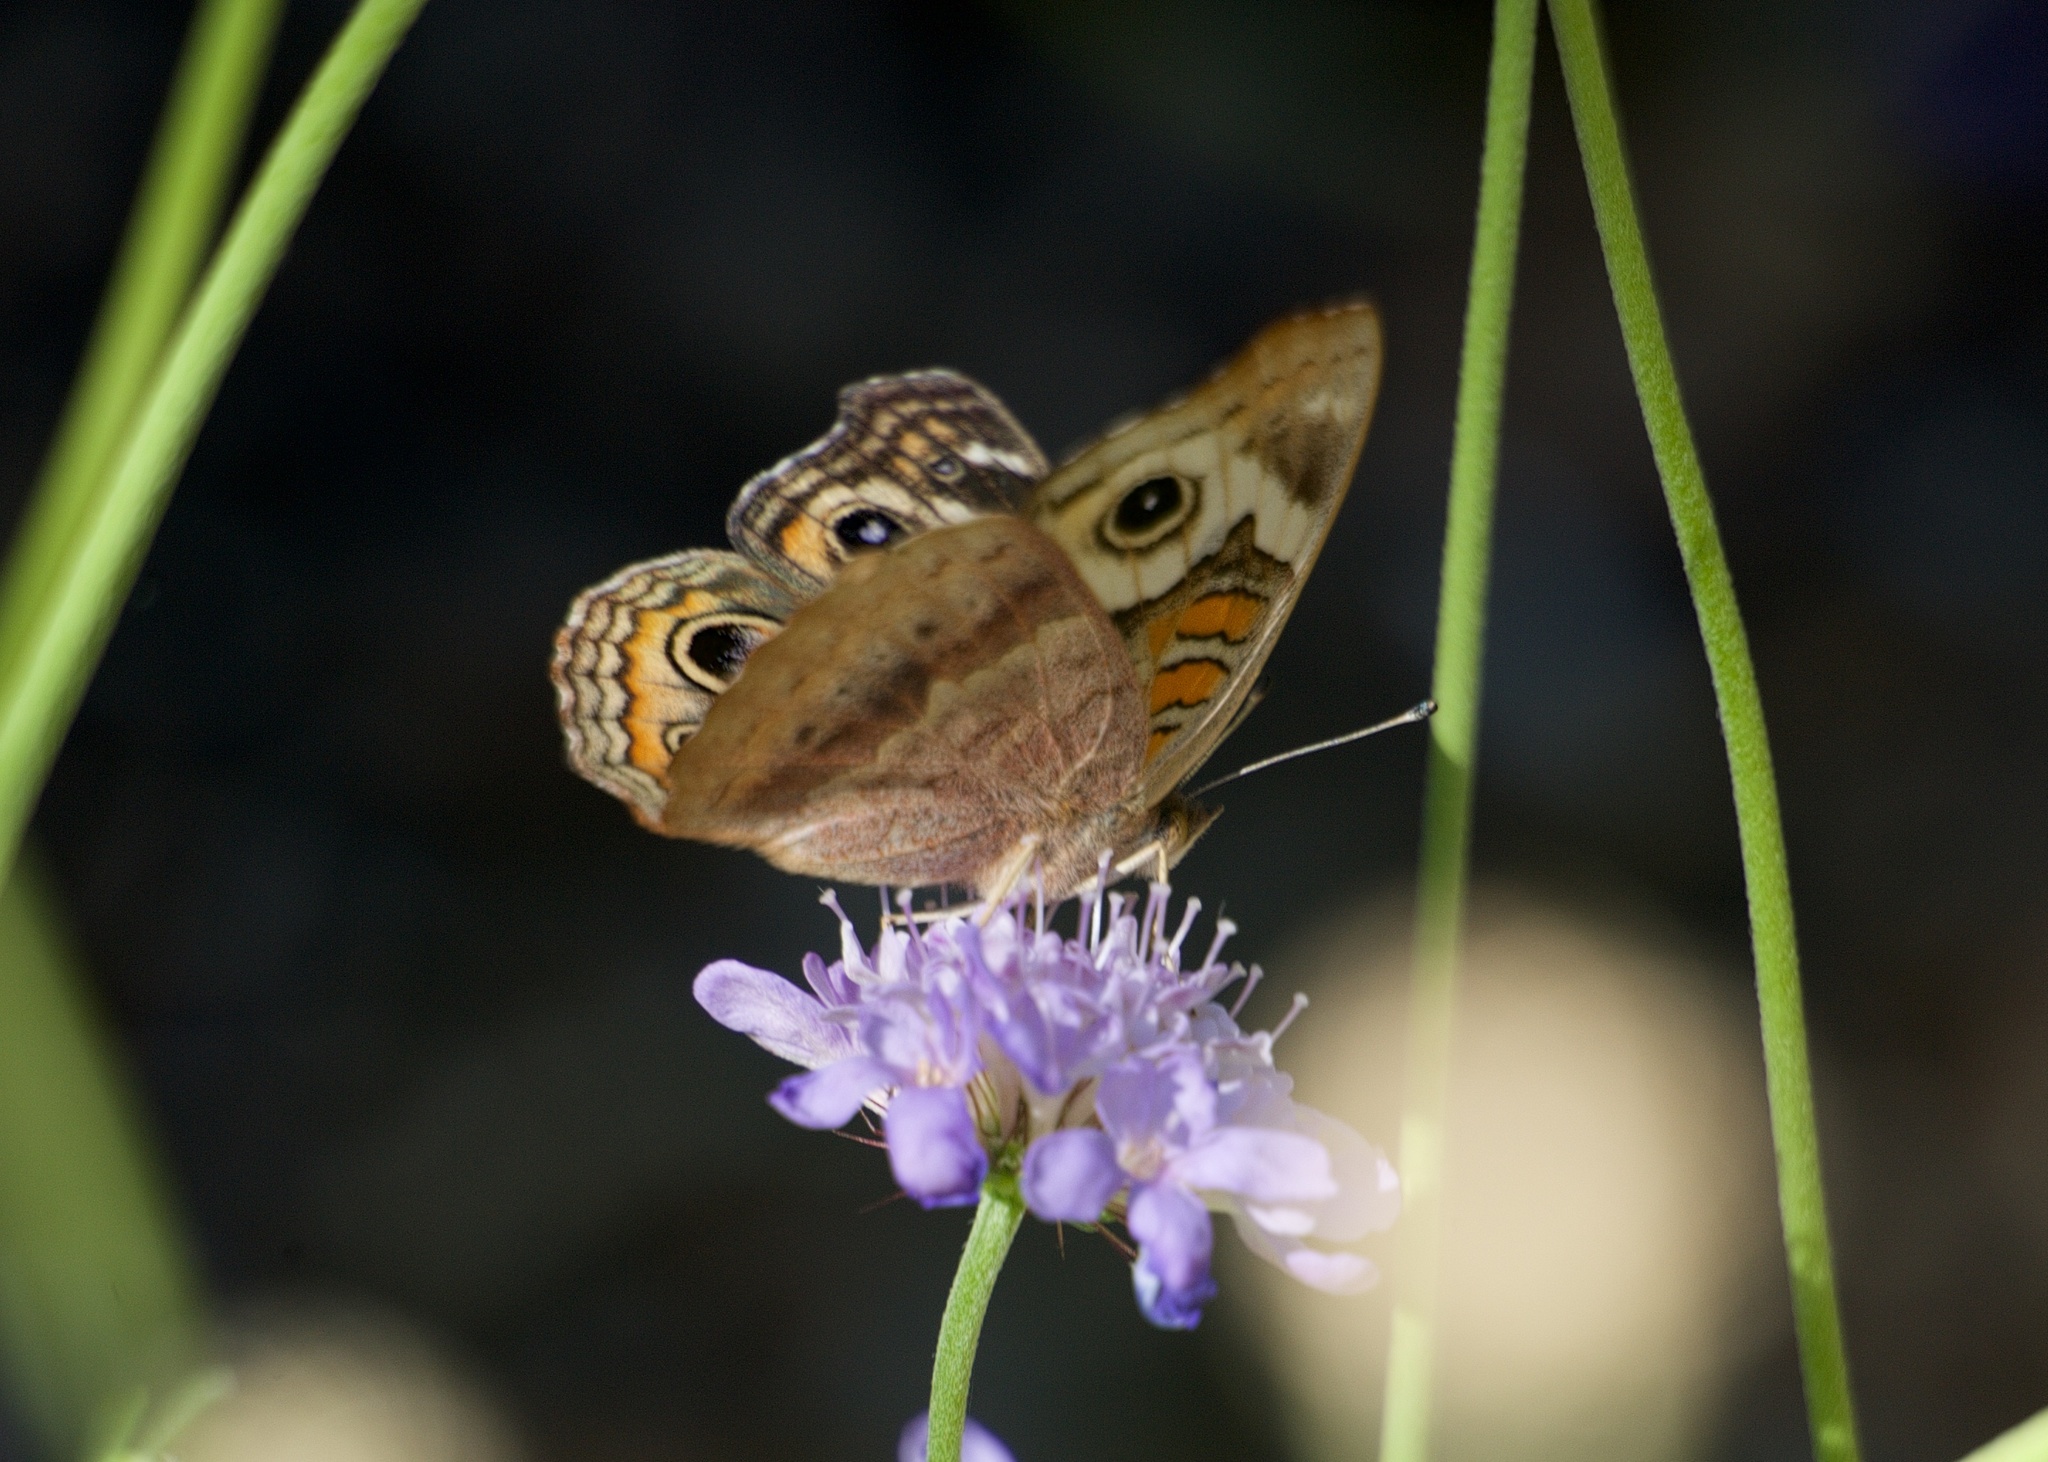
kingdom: Animalia
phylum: Arthropoda
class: Insecta
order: Lepidoptera
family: Nymphalidae
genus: Junonia
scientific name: Junonia grisea
